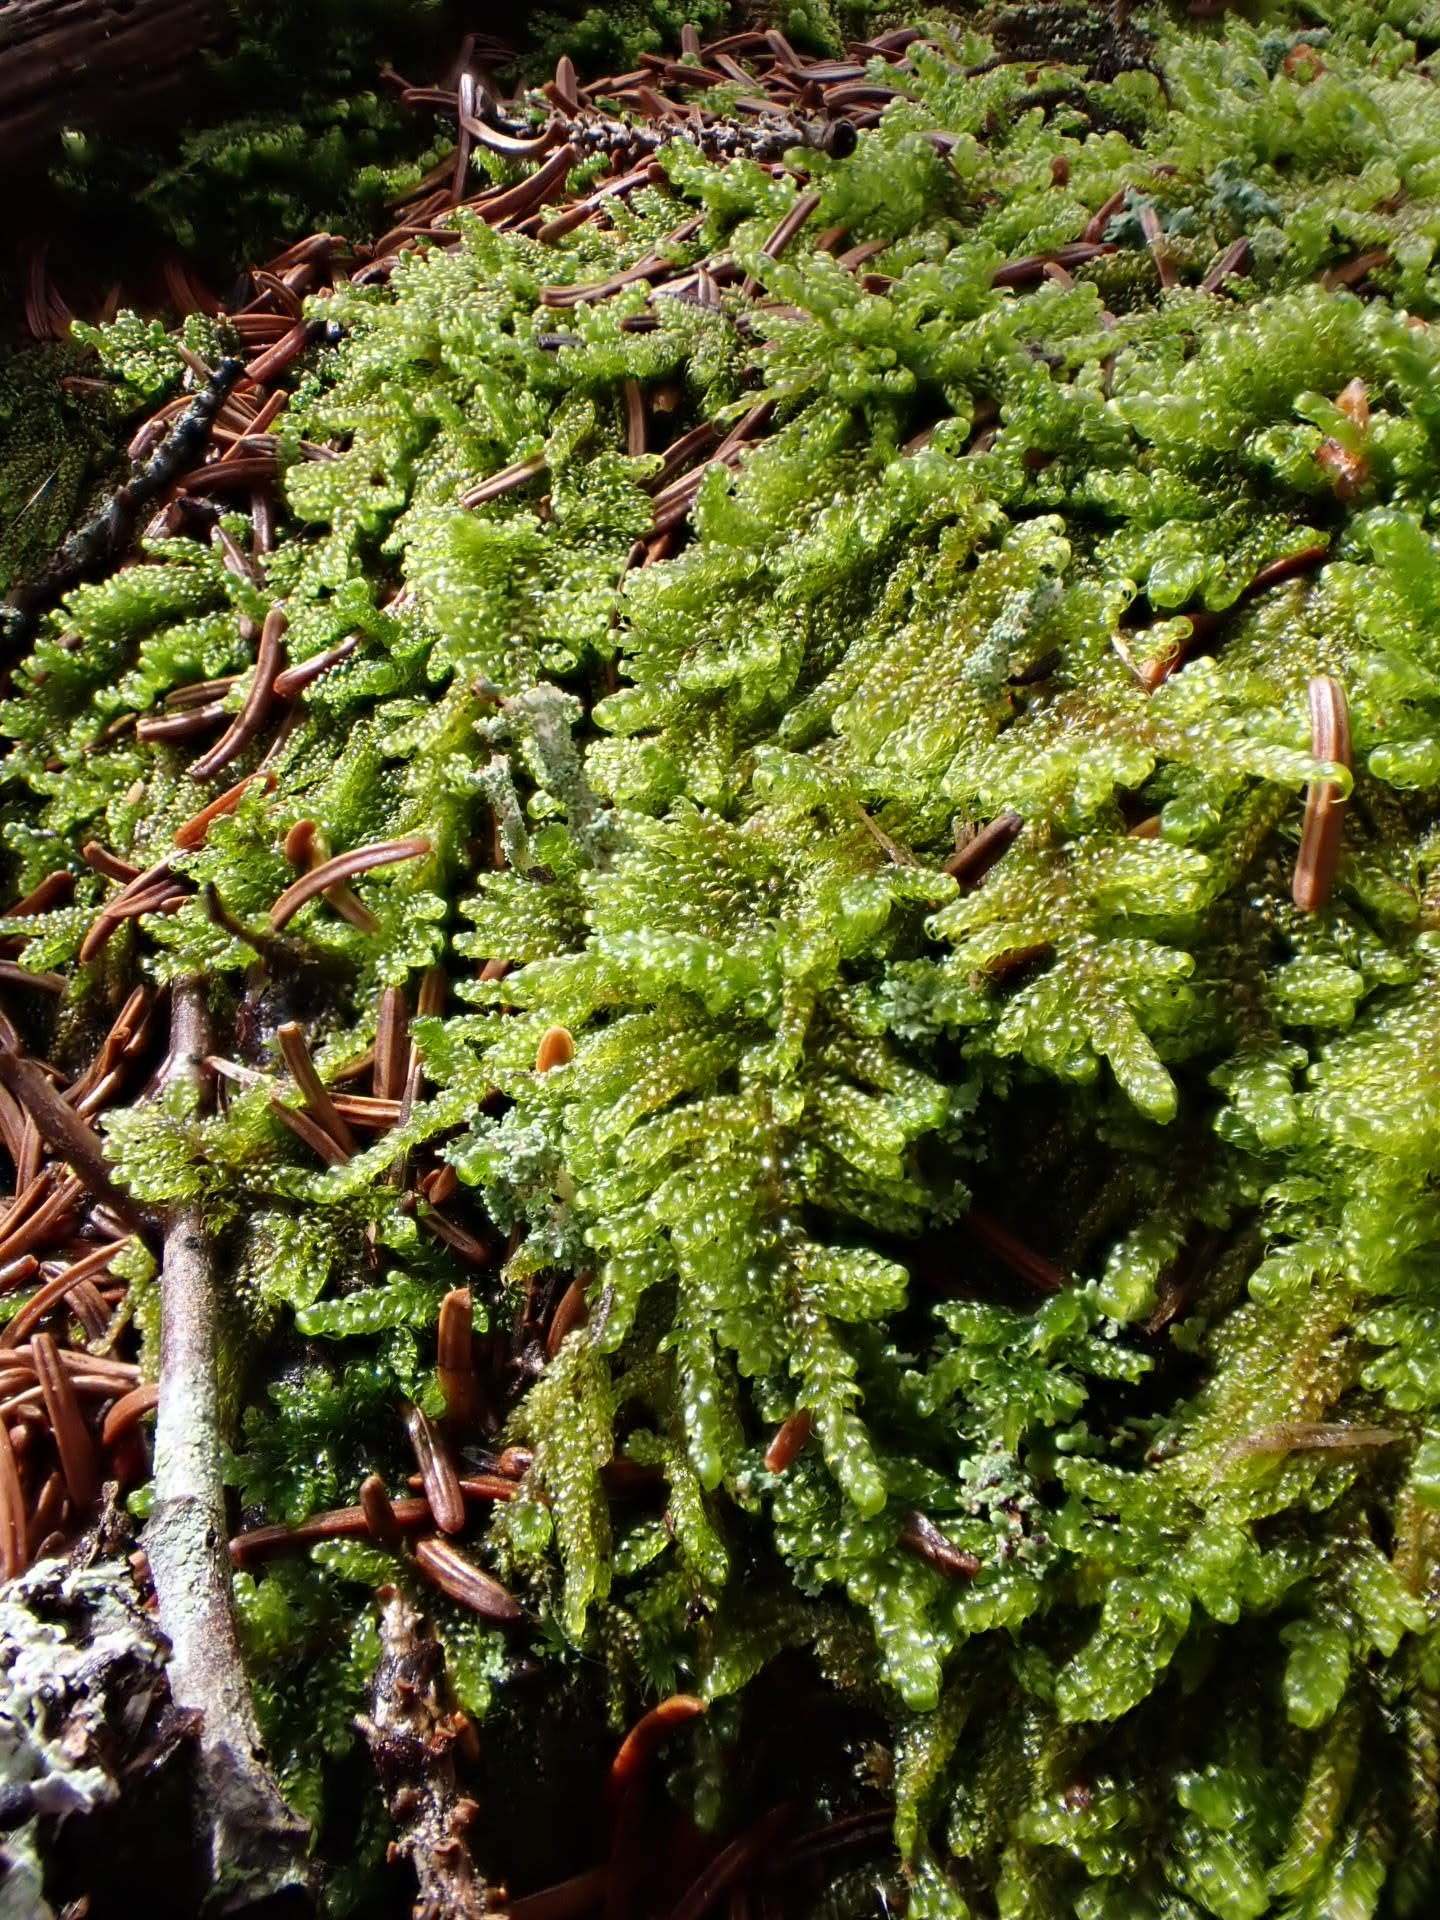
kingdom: Plantae
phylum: Bryophyta
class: Bryopsida
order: Hypnales
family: Callicladiaceae
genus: Callicladium
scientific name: Callicladium imponens
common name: Brocade moss
